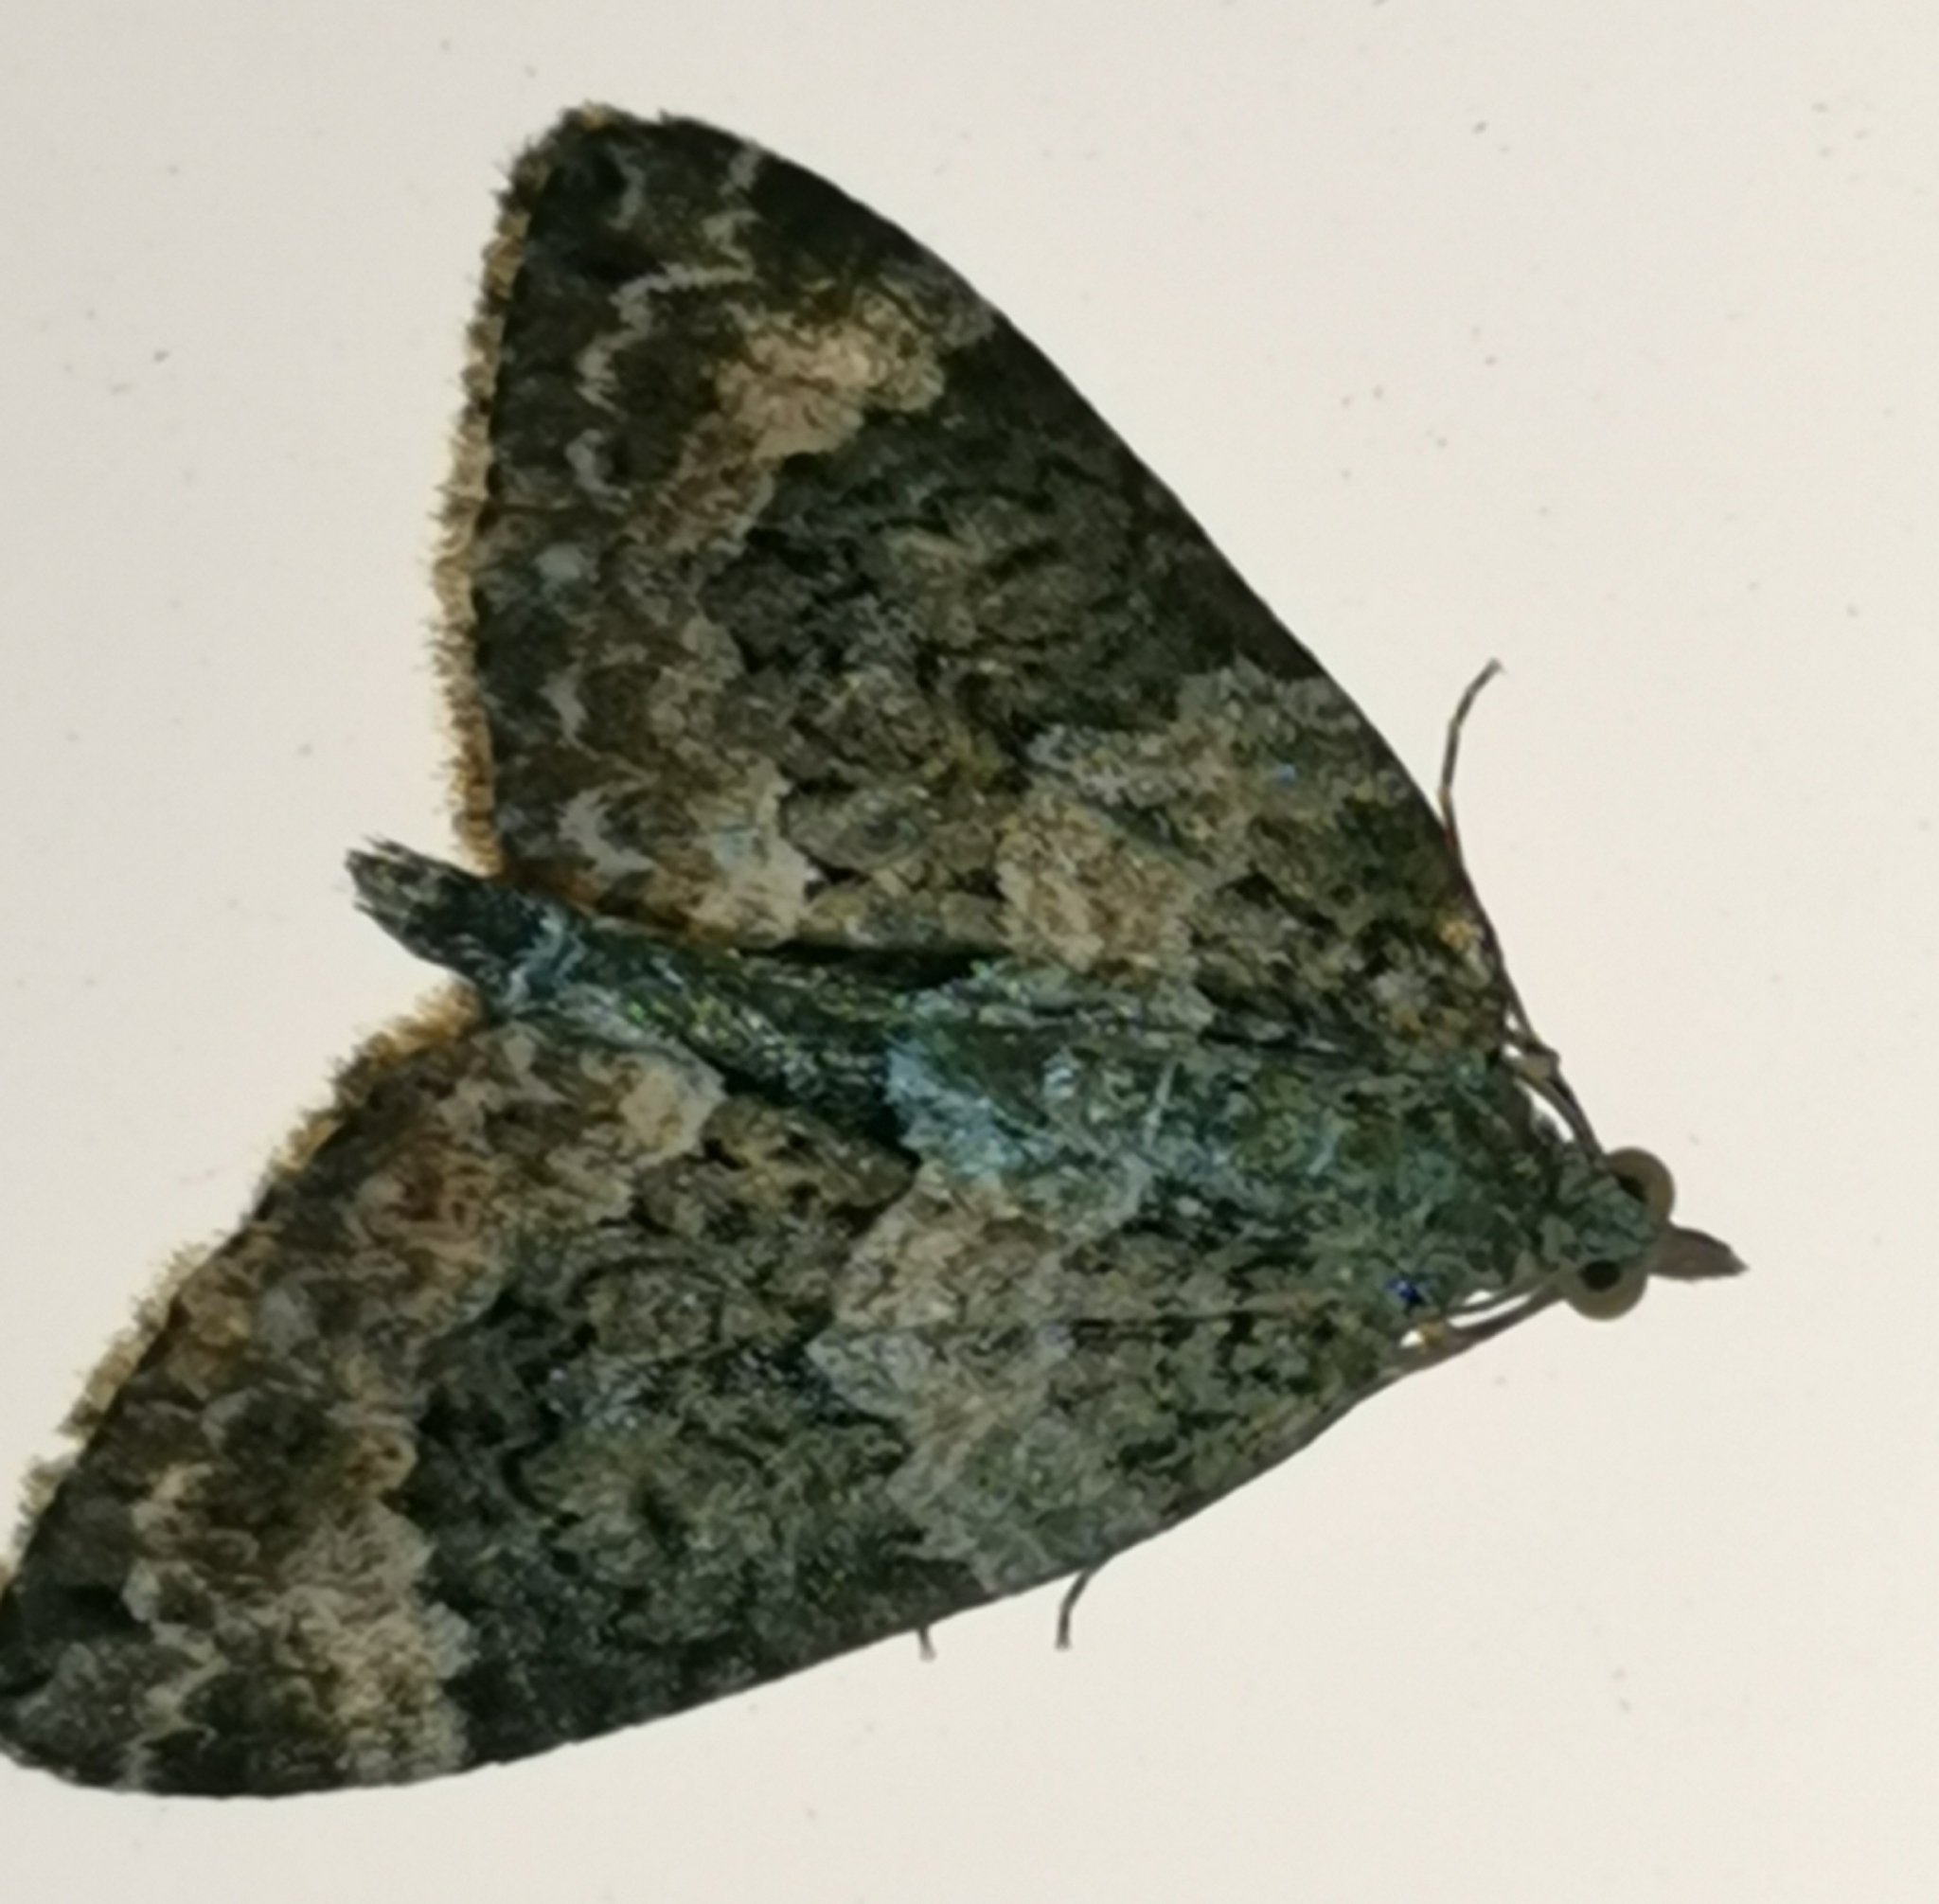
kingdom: Animalia
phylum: Arthropoda
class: Insecta
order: Lepidoptera
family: Geometridae
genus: Chloroclysta
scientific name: Chloroclysta miata
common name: Autumn green carpet
